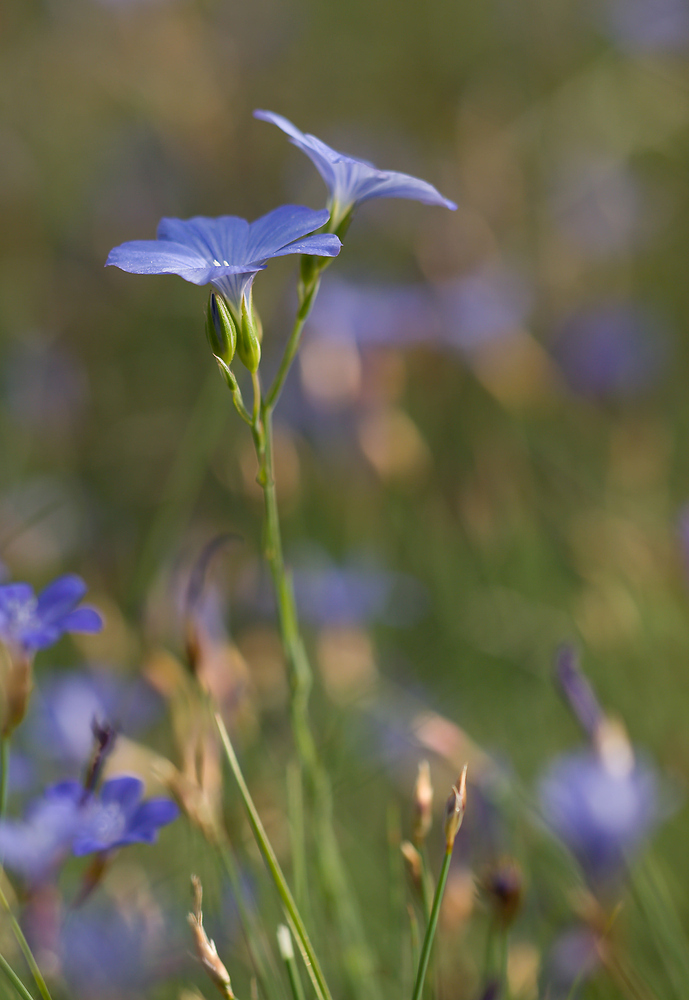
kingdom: Plantae
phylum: Tracheophyta
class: Magnoliopsida
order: Malpighiales
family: Linaceae
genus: Linum
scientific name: Linum narbonense
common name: Flax
